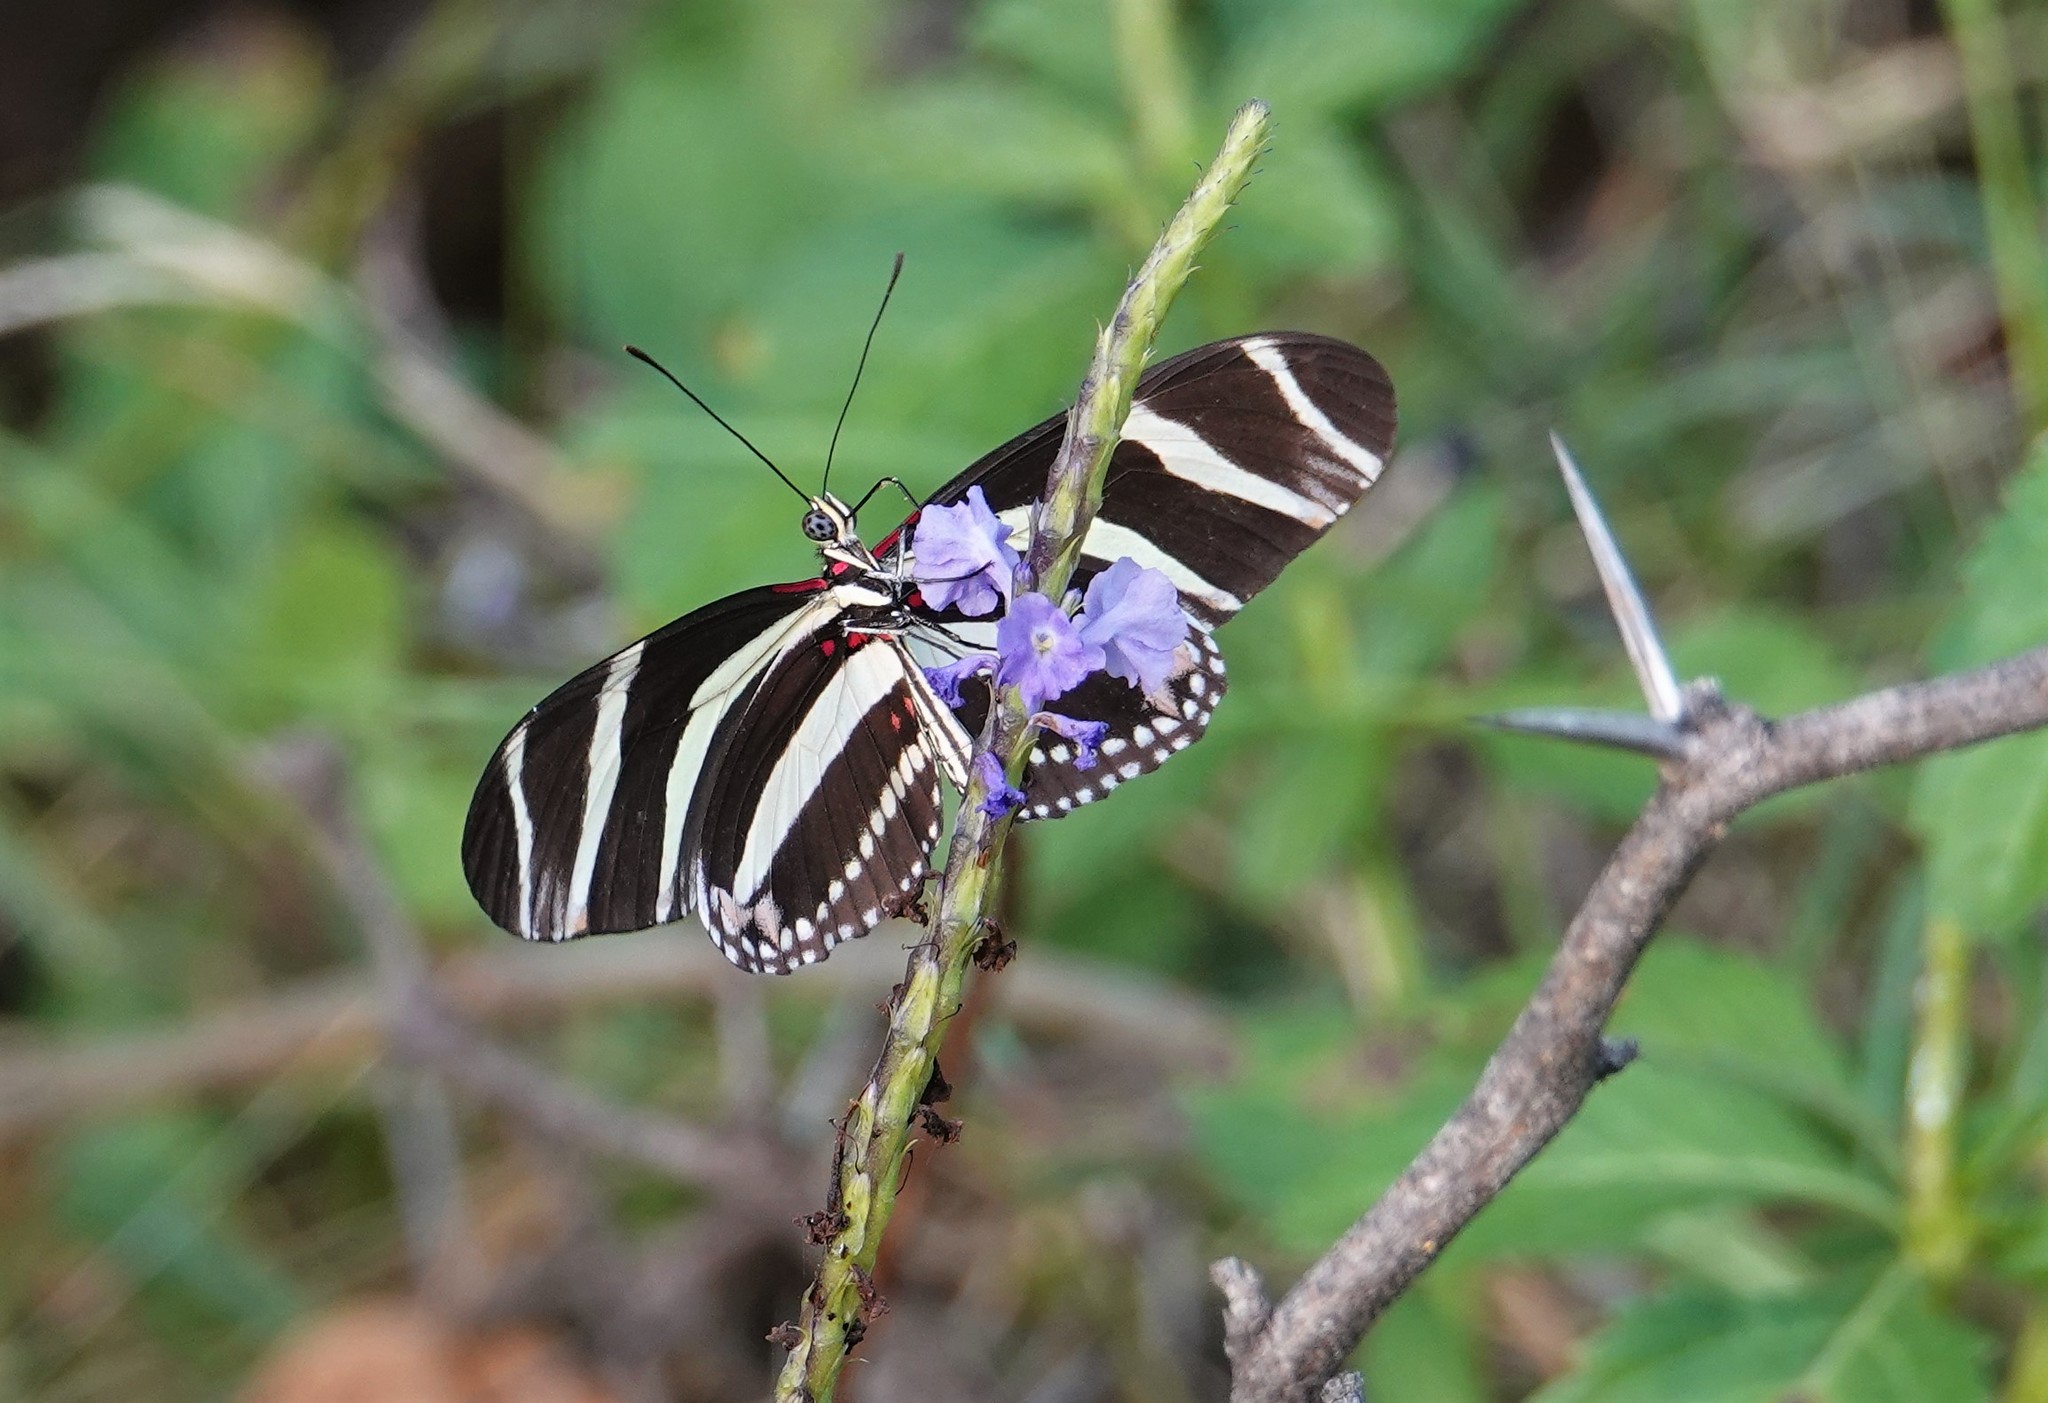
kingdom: Animalia
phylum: Arthropoda
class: Insecta
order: Lepidoptera
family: Nymphalidae
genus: Heliconius
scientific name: Heliconius charithonia
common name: Zebra long wing
